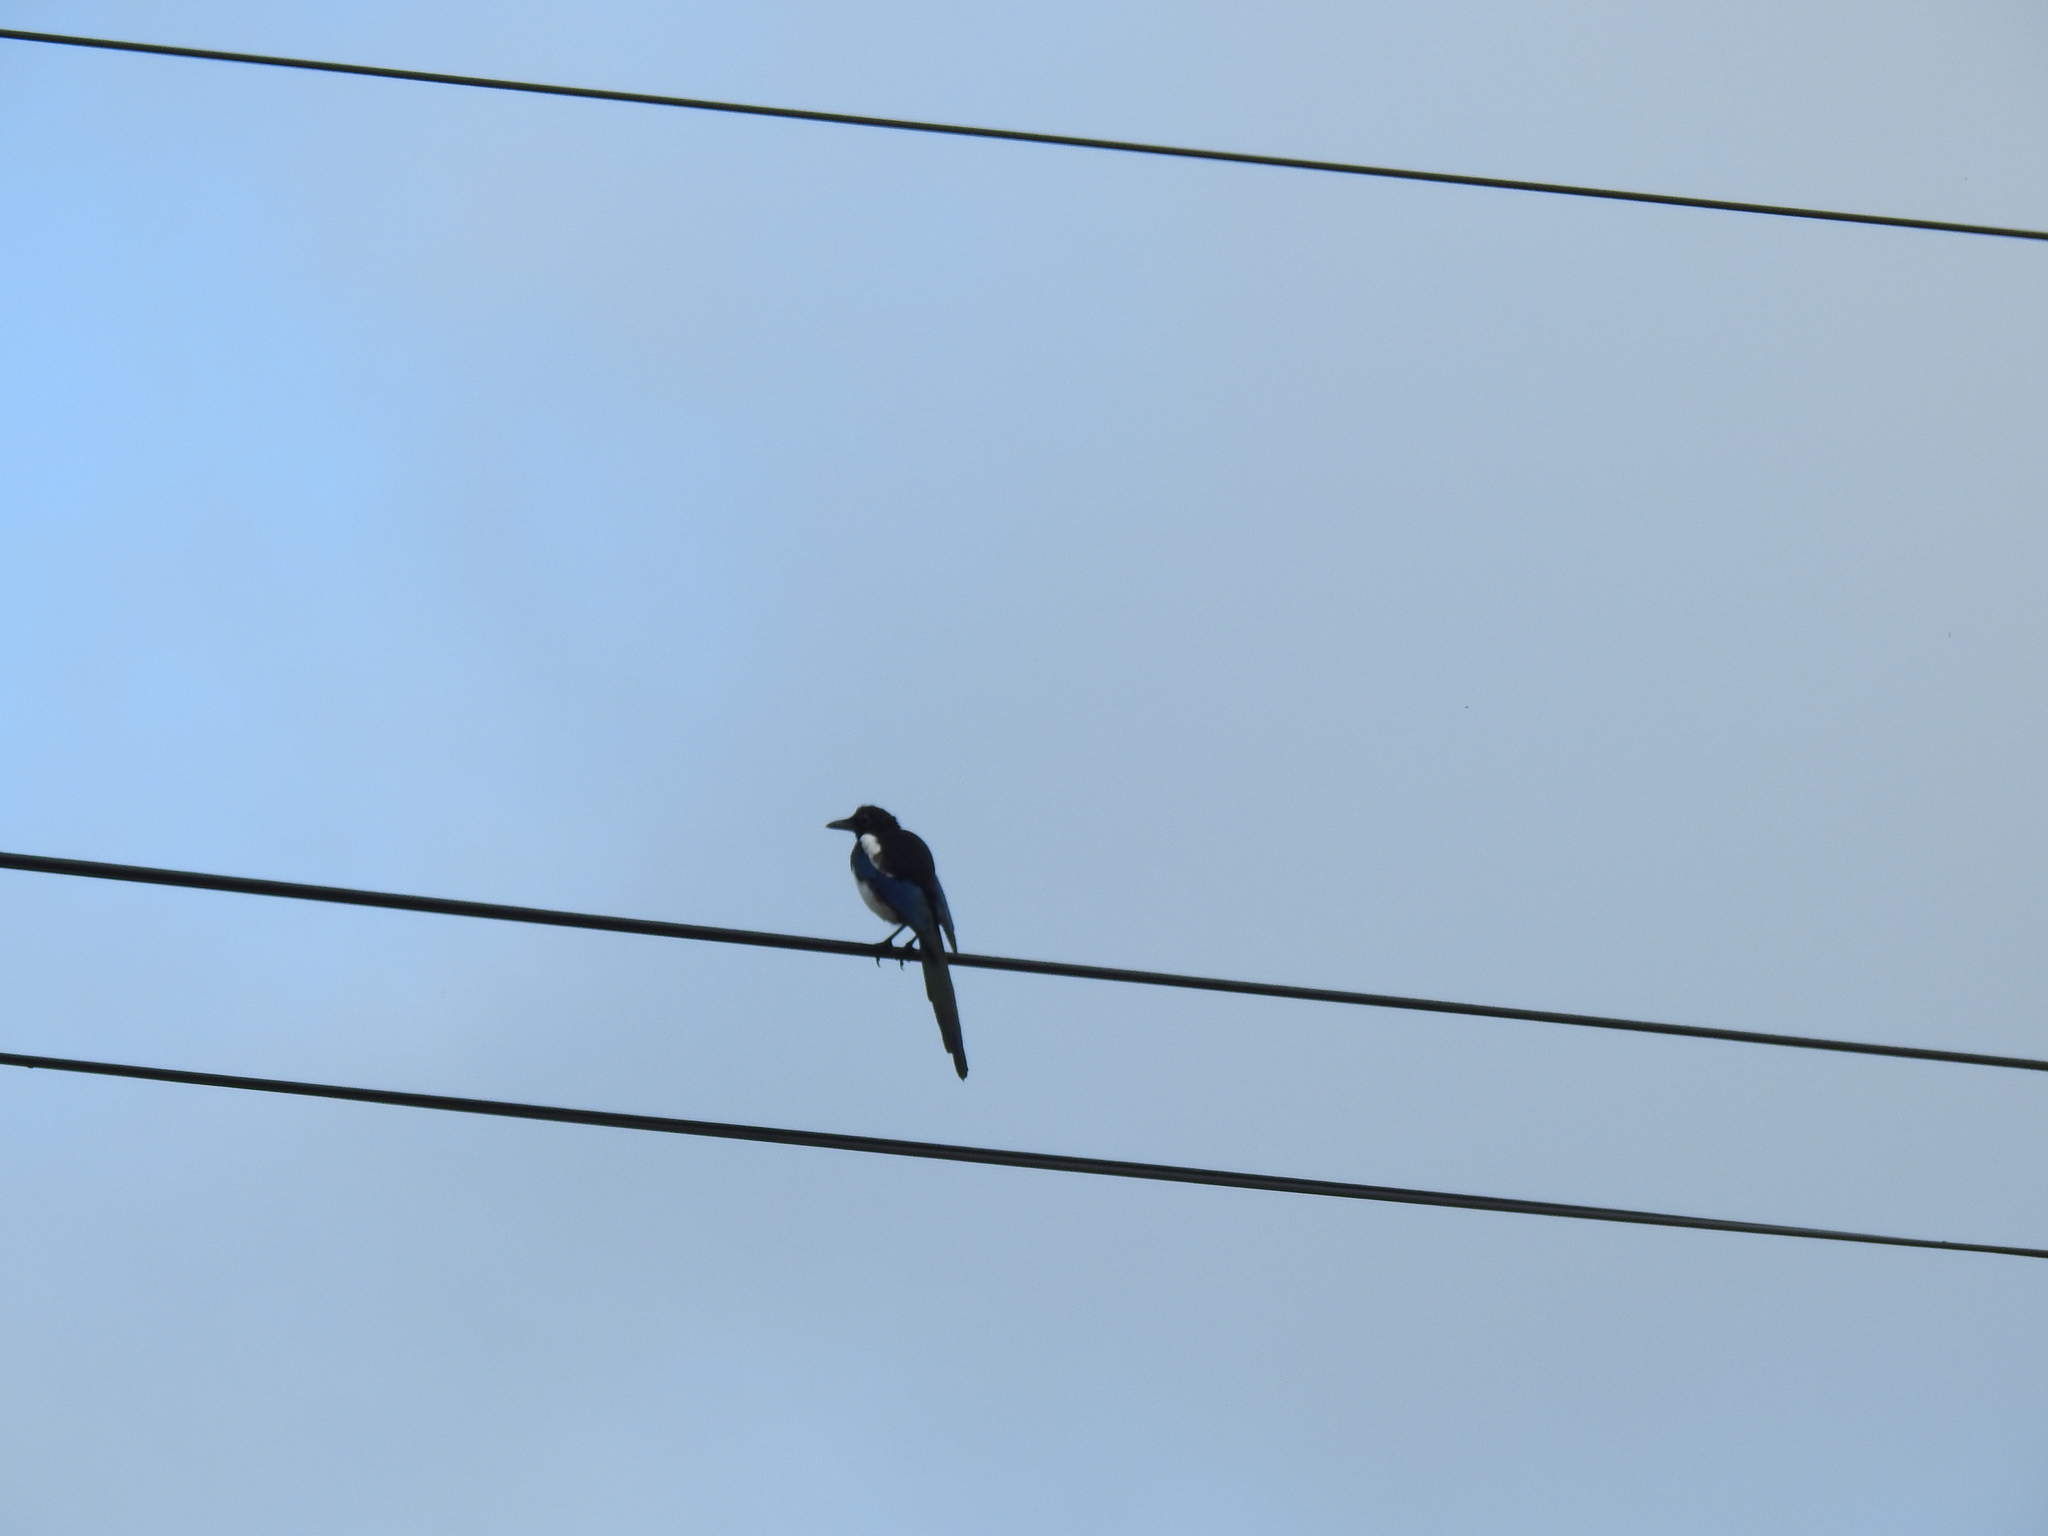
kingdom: Animalia
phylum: Chordata
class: Aves
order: Passeriformes
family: Corvidae
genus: Pica
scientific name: Pica pica
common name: Eurasian magpie
